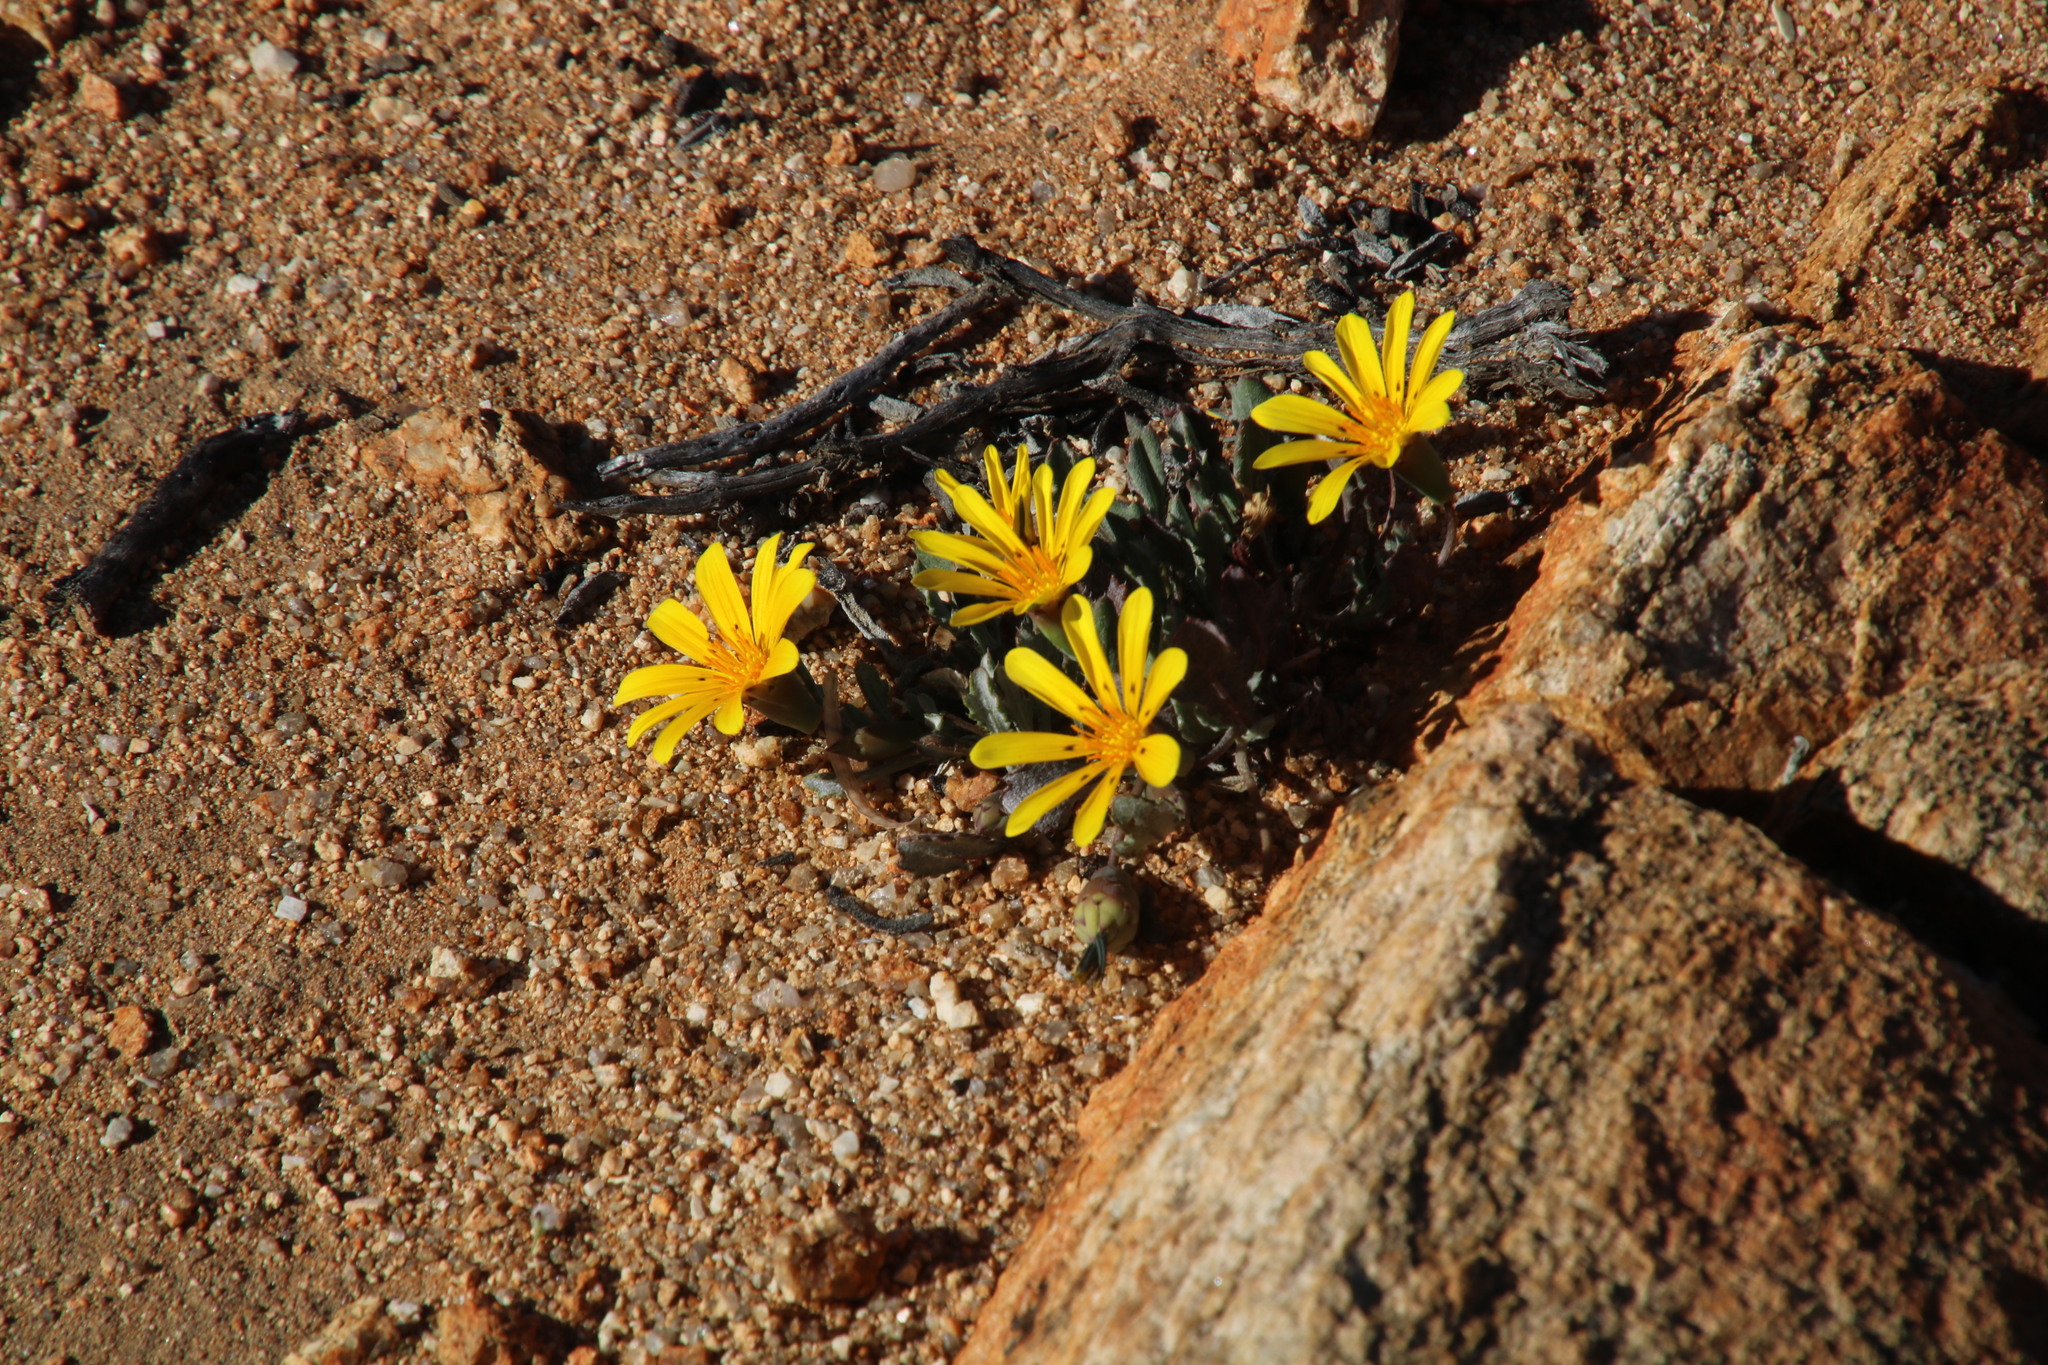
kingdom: Plantae
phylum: Tracheophyta
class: Magnoliopsida
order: Asterales
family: Asteraceae
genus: Gazania
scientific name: Gazania lichtensteinii
